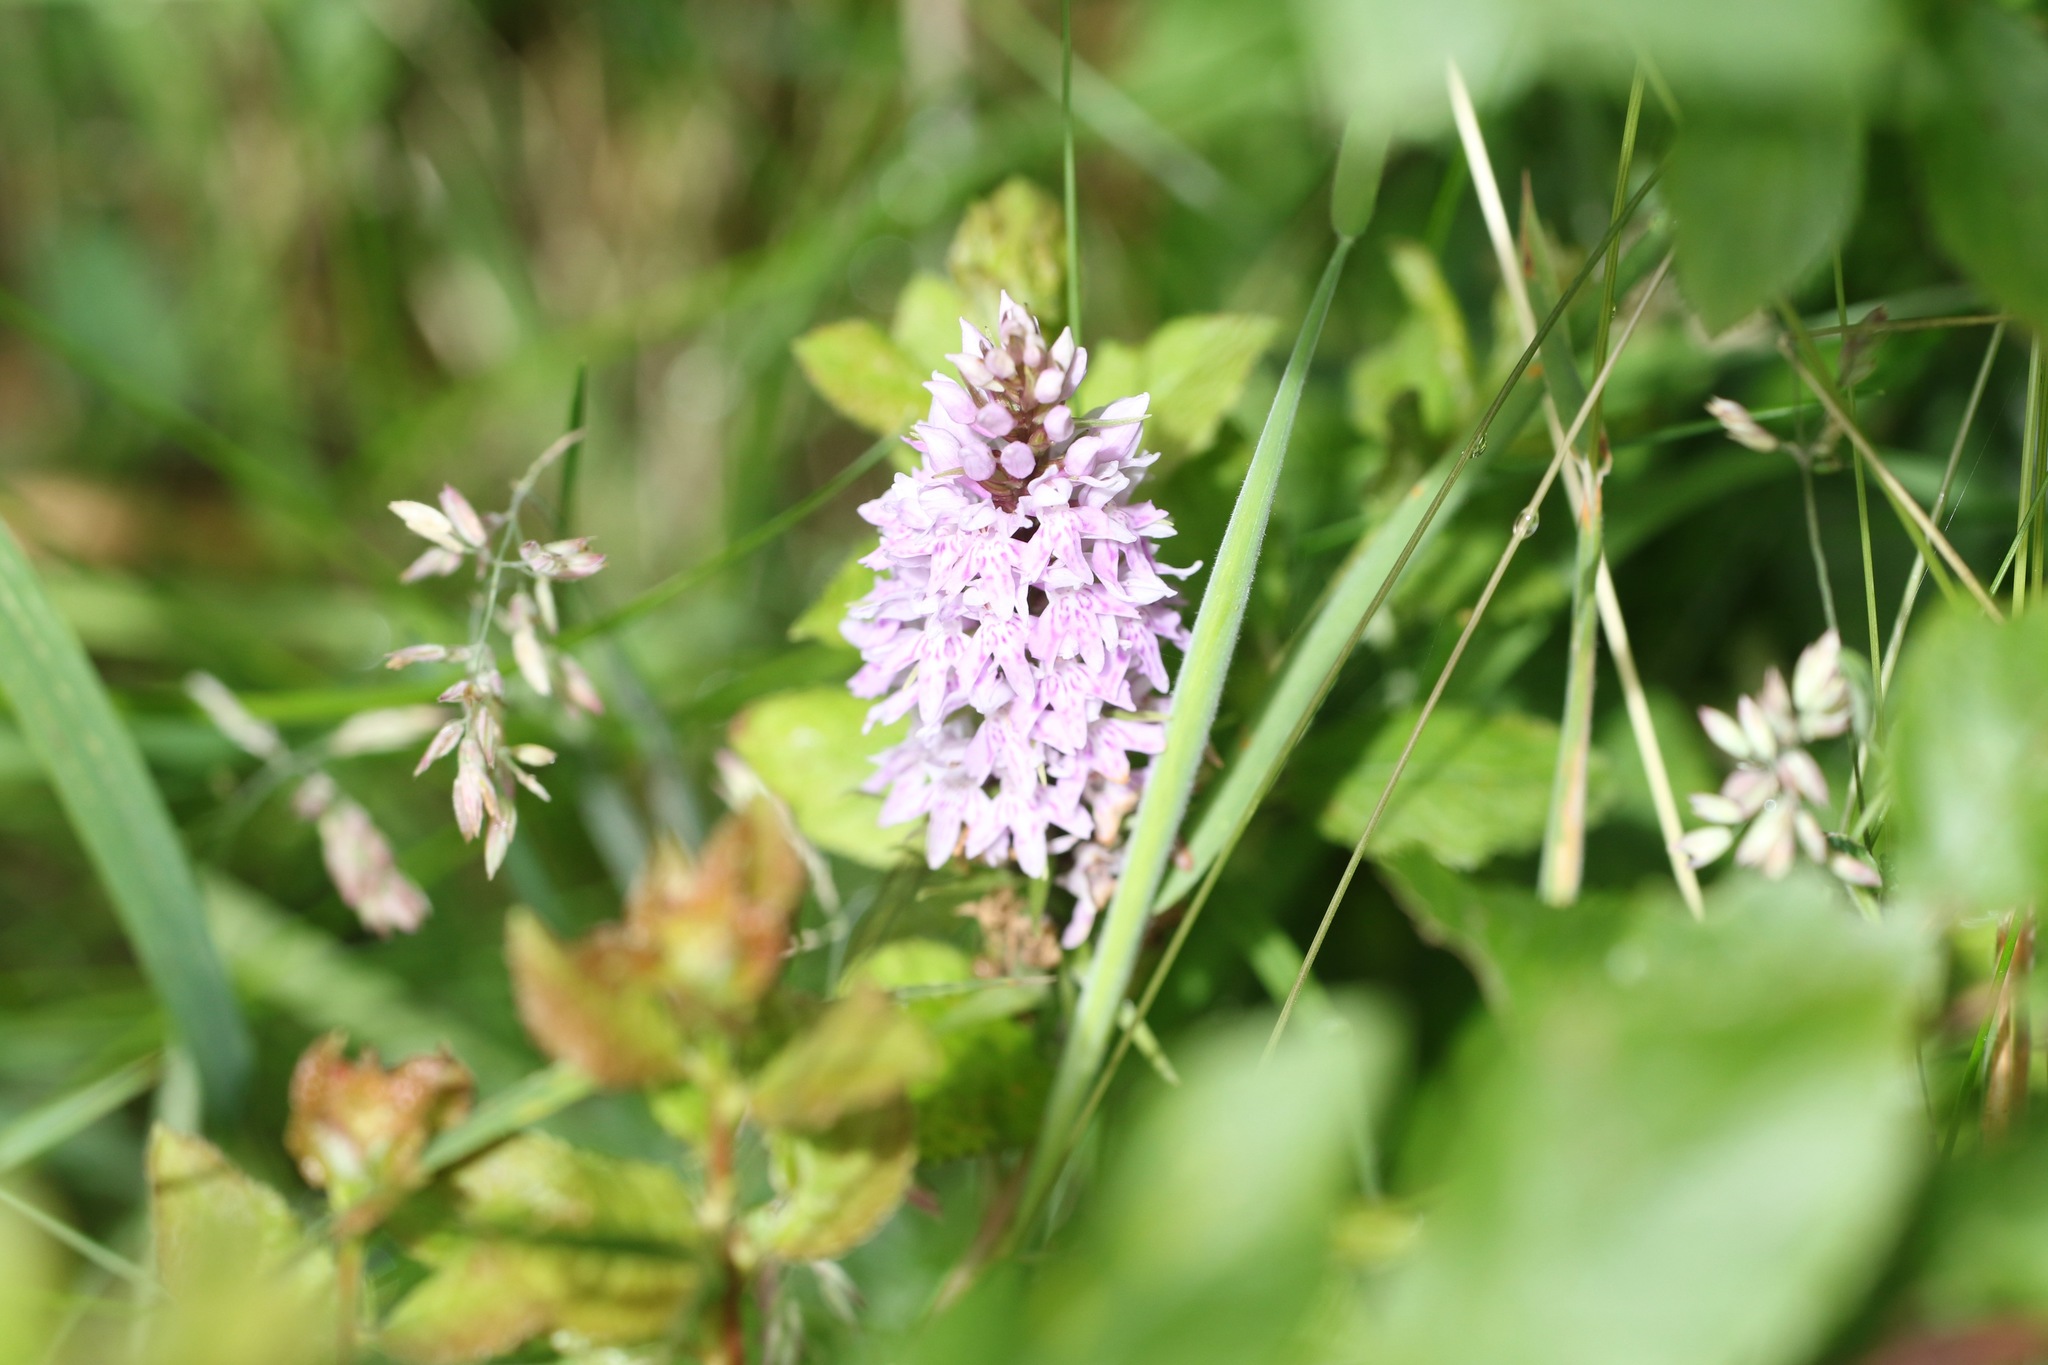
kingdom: Plantae
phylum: Tracheophyta
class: Liliopsida
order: Asparagales
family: Orchidaceae
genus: Dactylorhiza
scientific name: Dactylorhiza maculata
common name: Heath spotted-orchid
